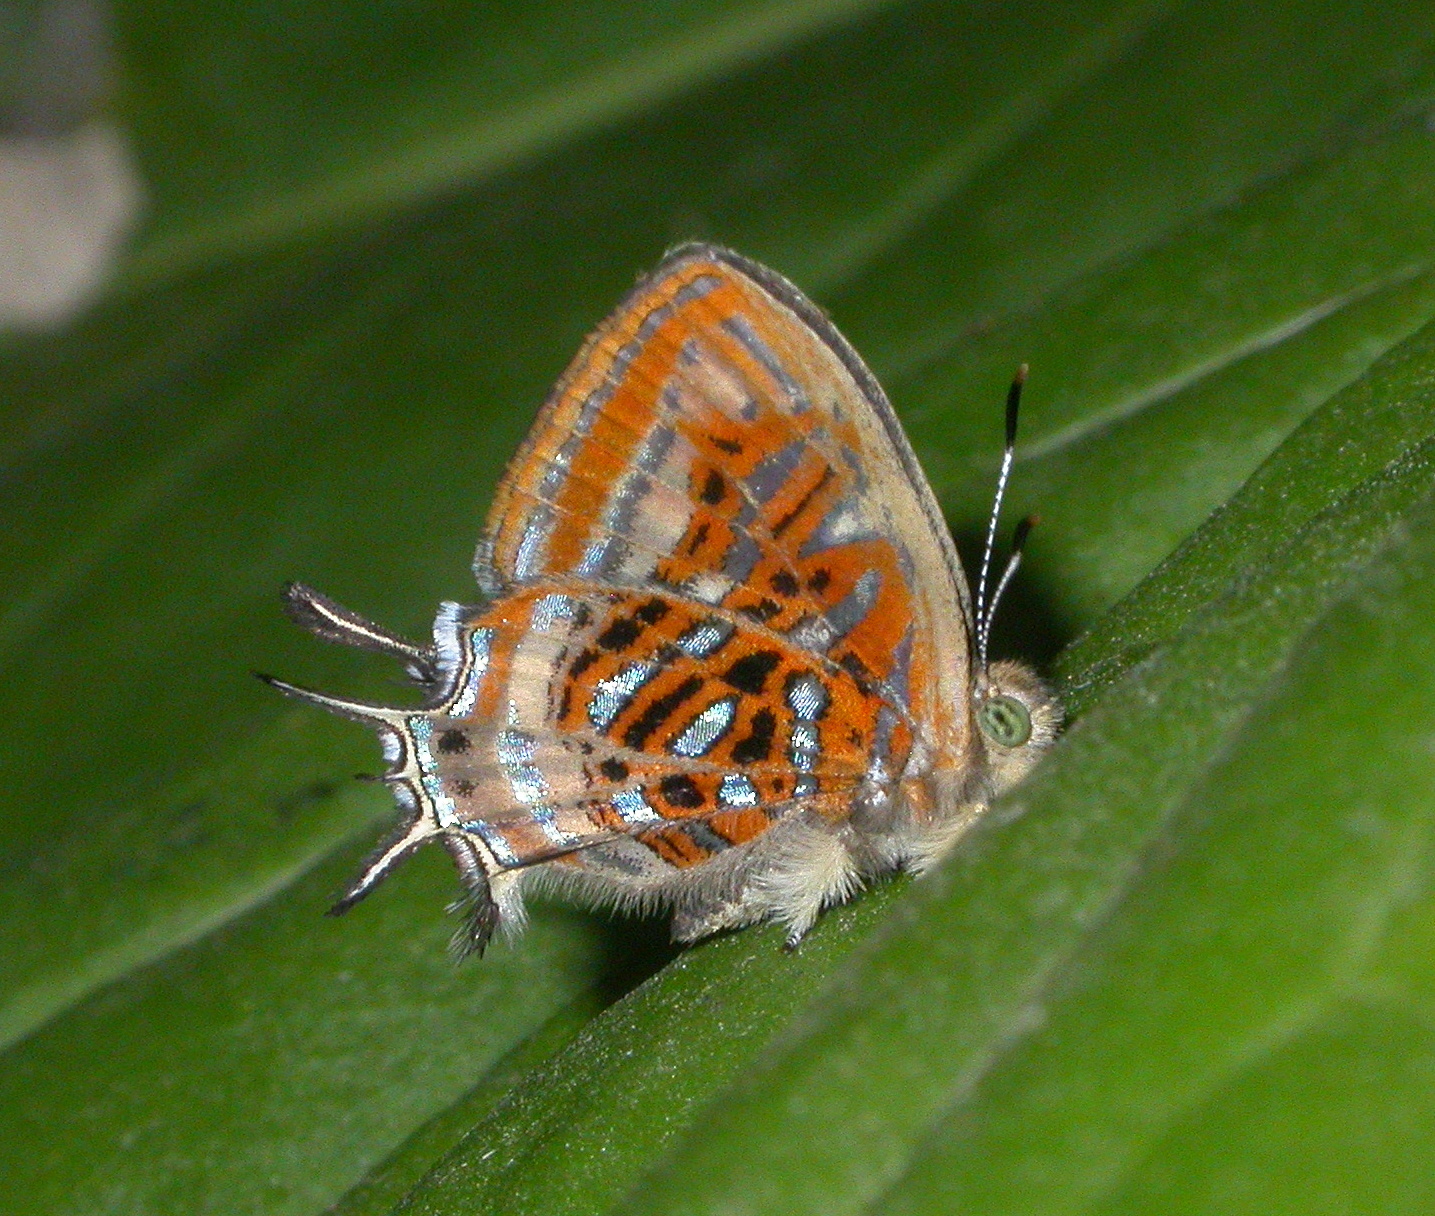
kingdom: Animalia
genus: Charis
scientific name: Charis chrysus
